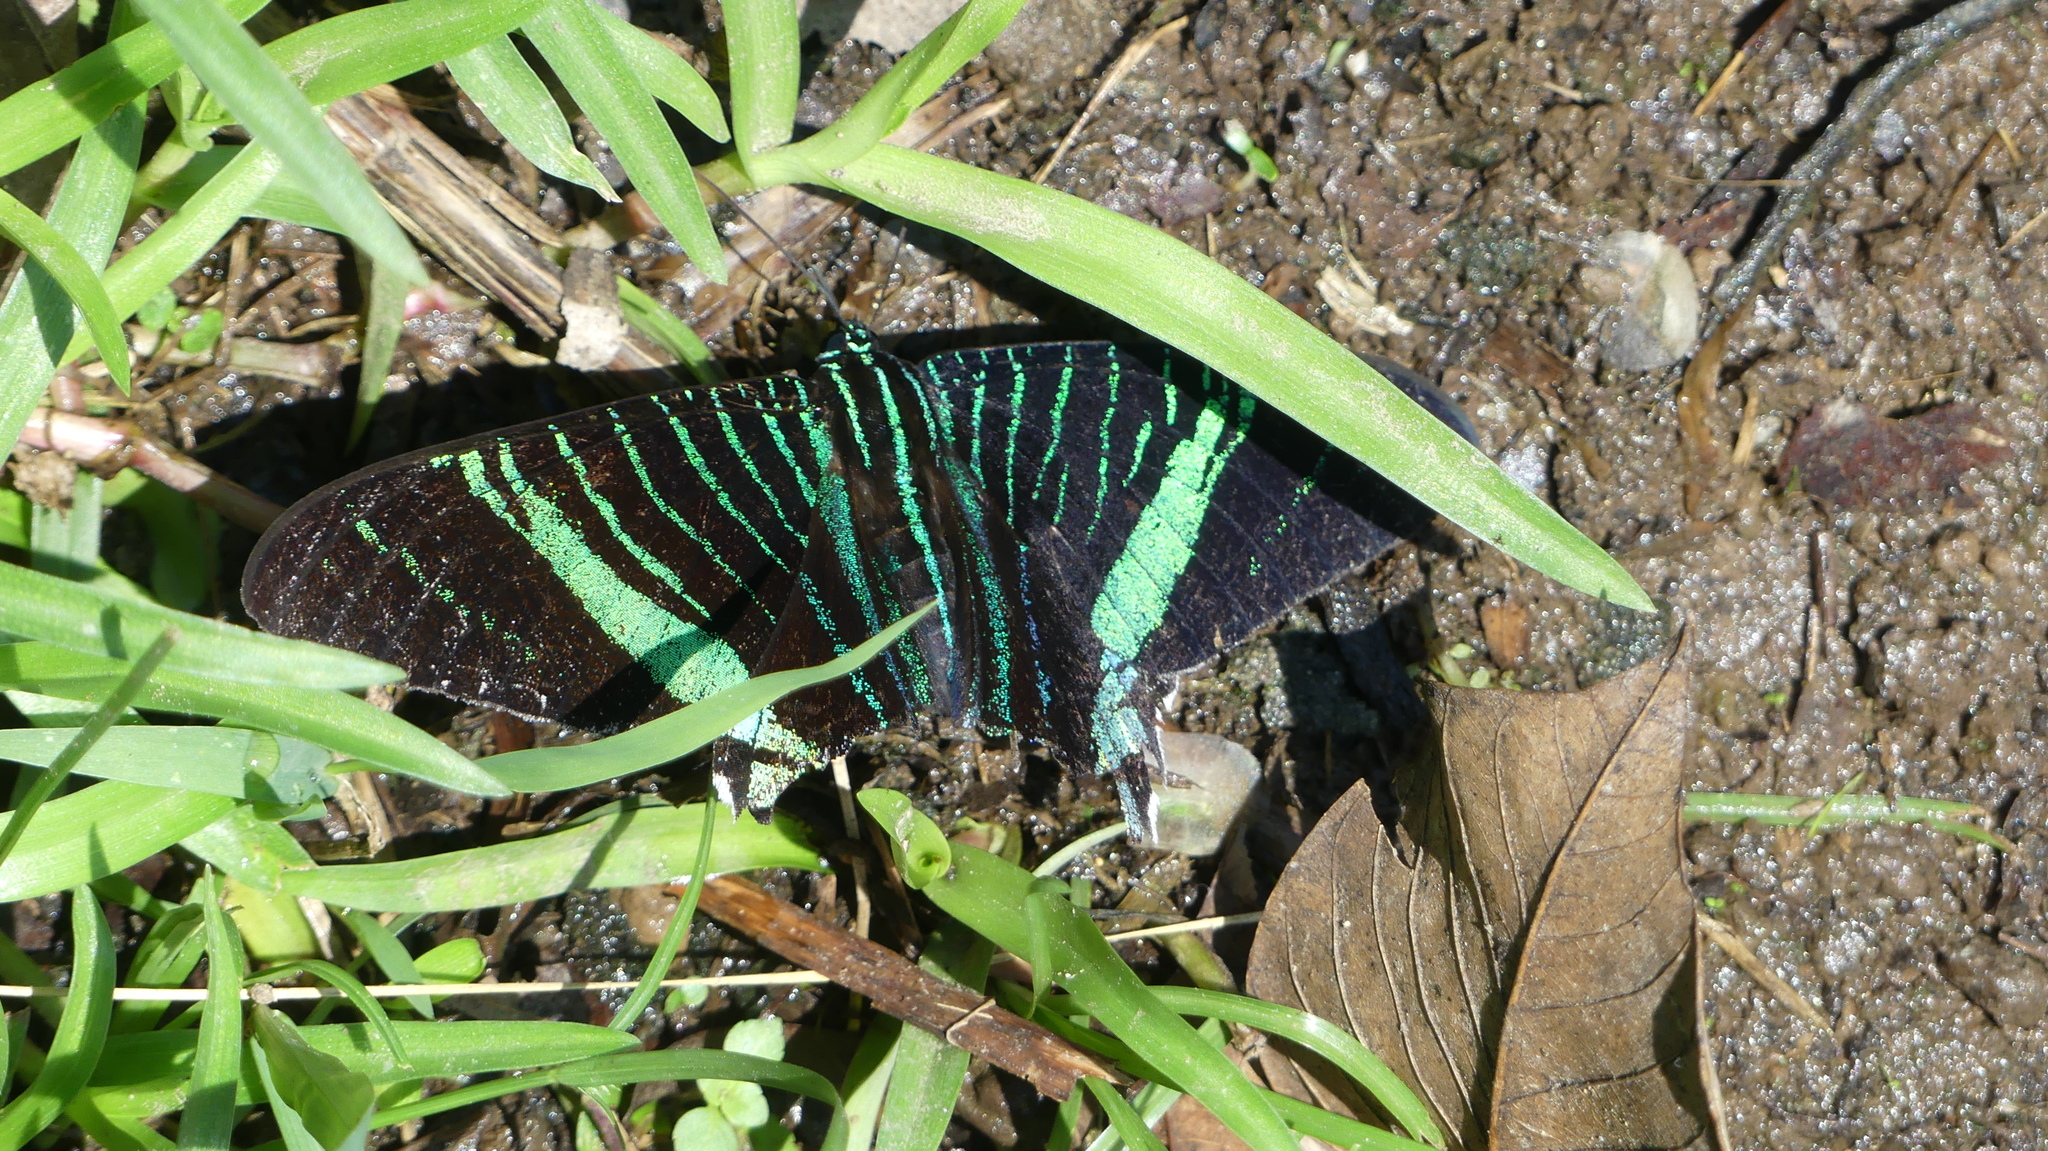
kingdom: Animalia
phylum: Arthropoda
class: Insecta
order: Lepidoptera
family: Uraniidae
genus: Urania
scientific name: Urania leilus
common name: Peacock moth
